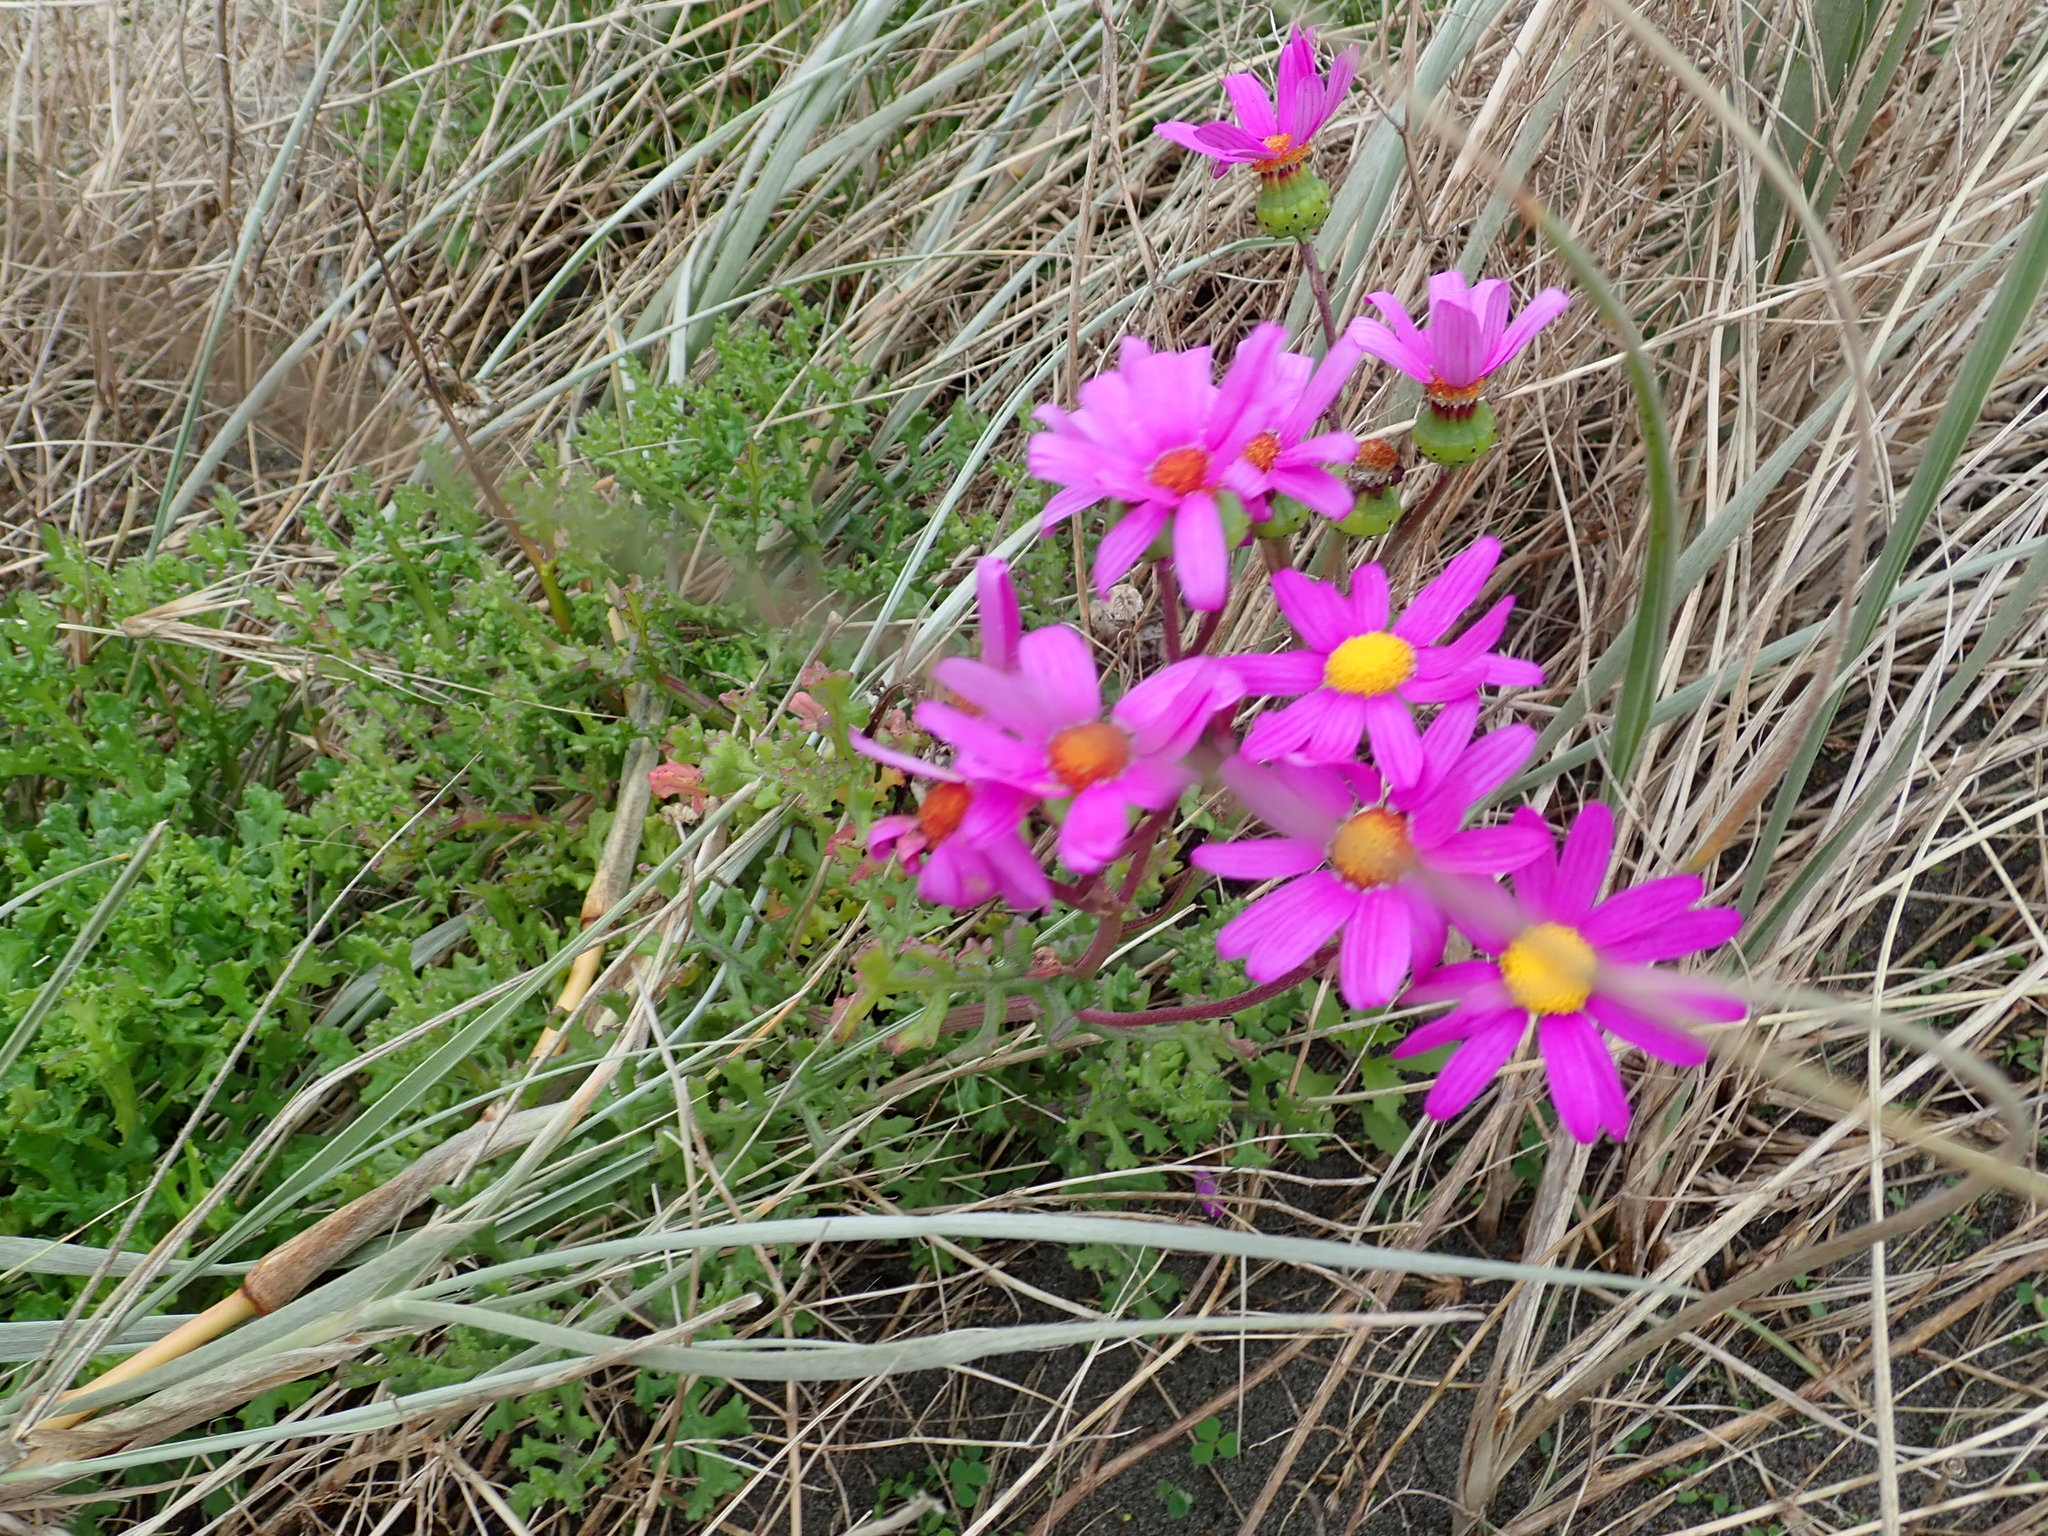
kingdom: Plantae
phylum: Tracheophyta
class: Magnoliopsida
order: Asterales
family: Asteraceae
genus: Senecio
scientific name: Senecio elegans
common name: Purple groundsel
